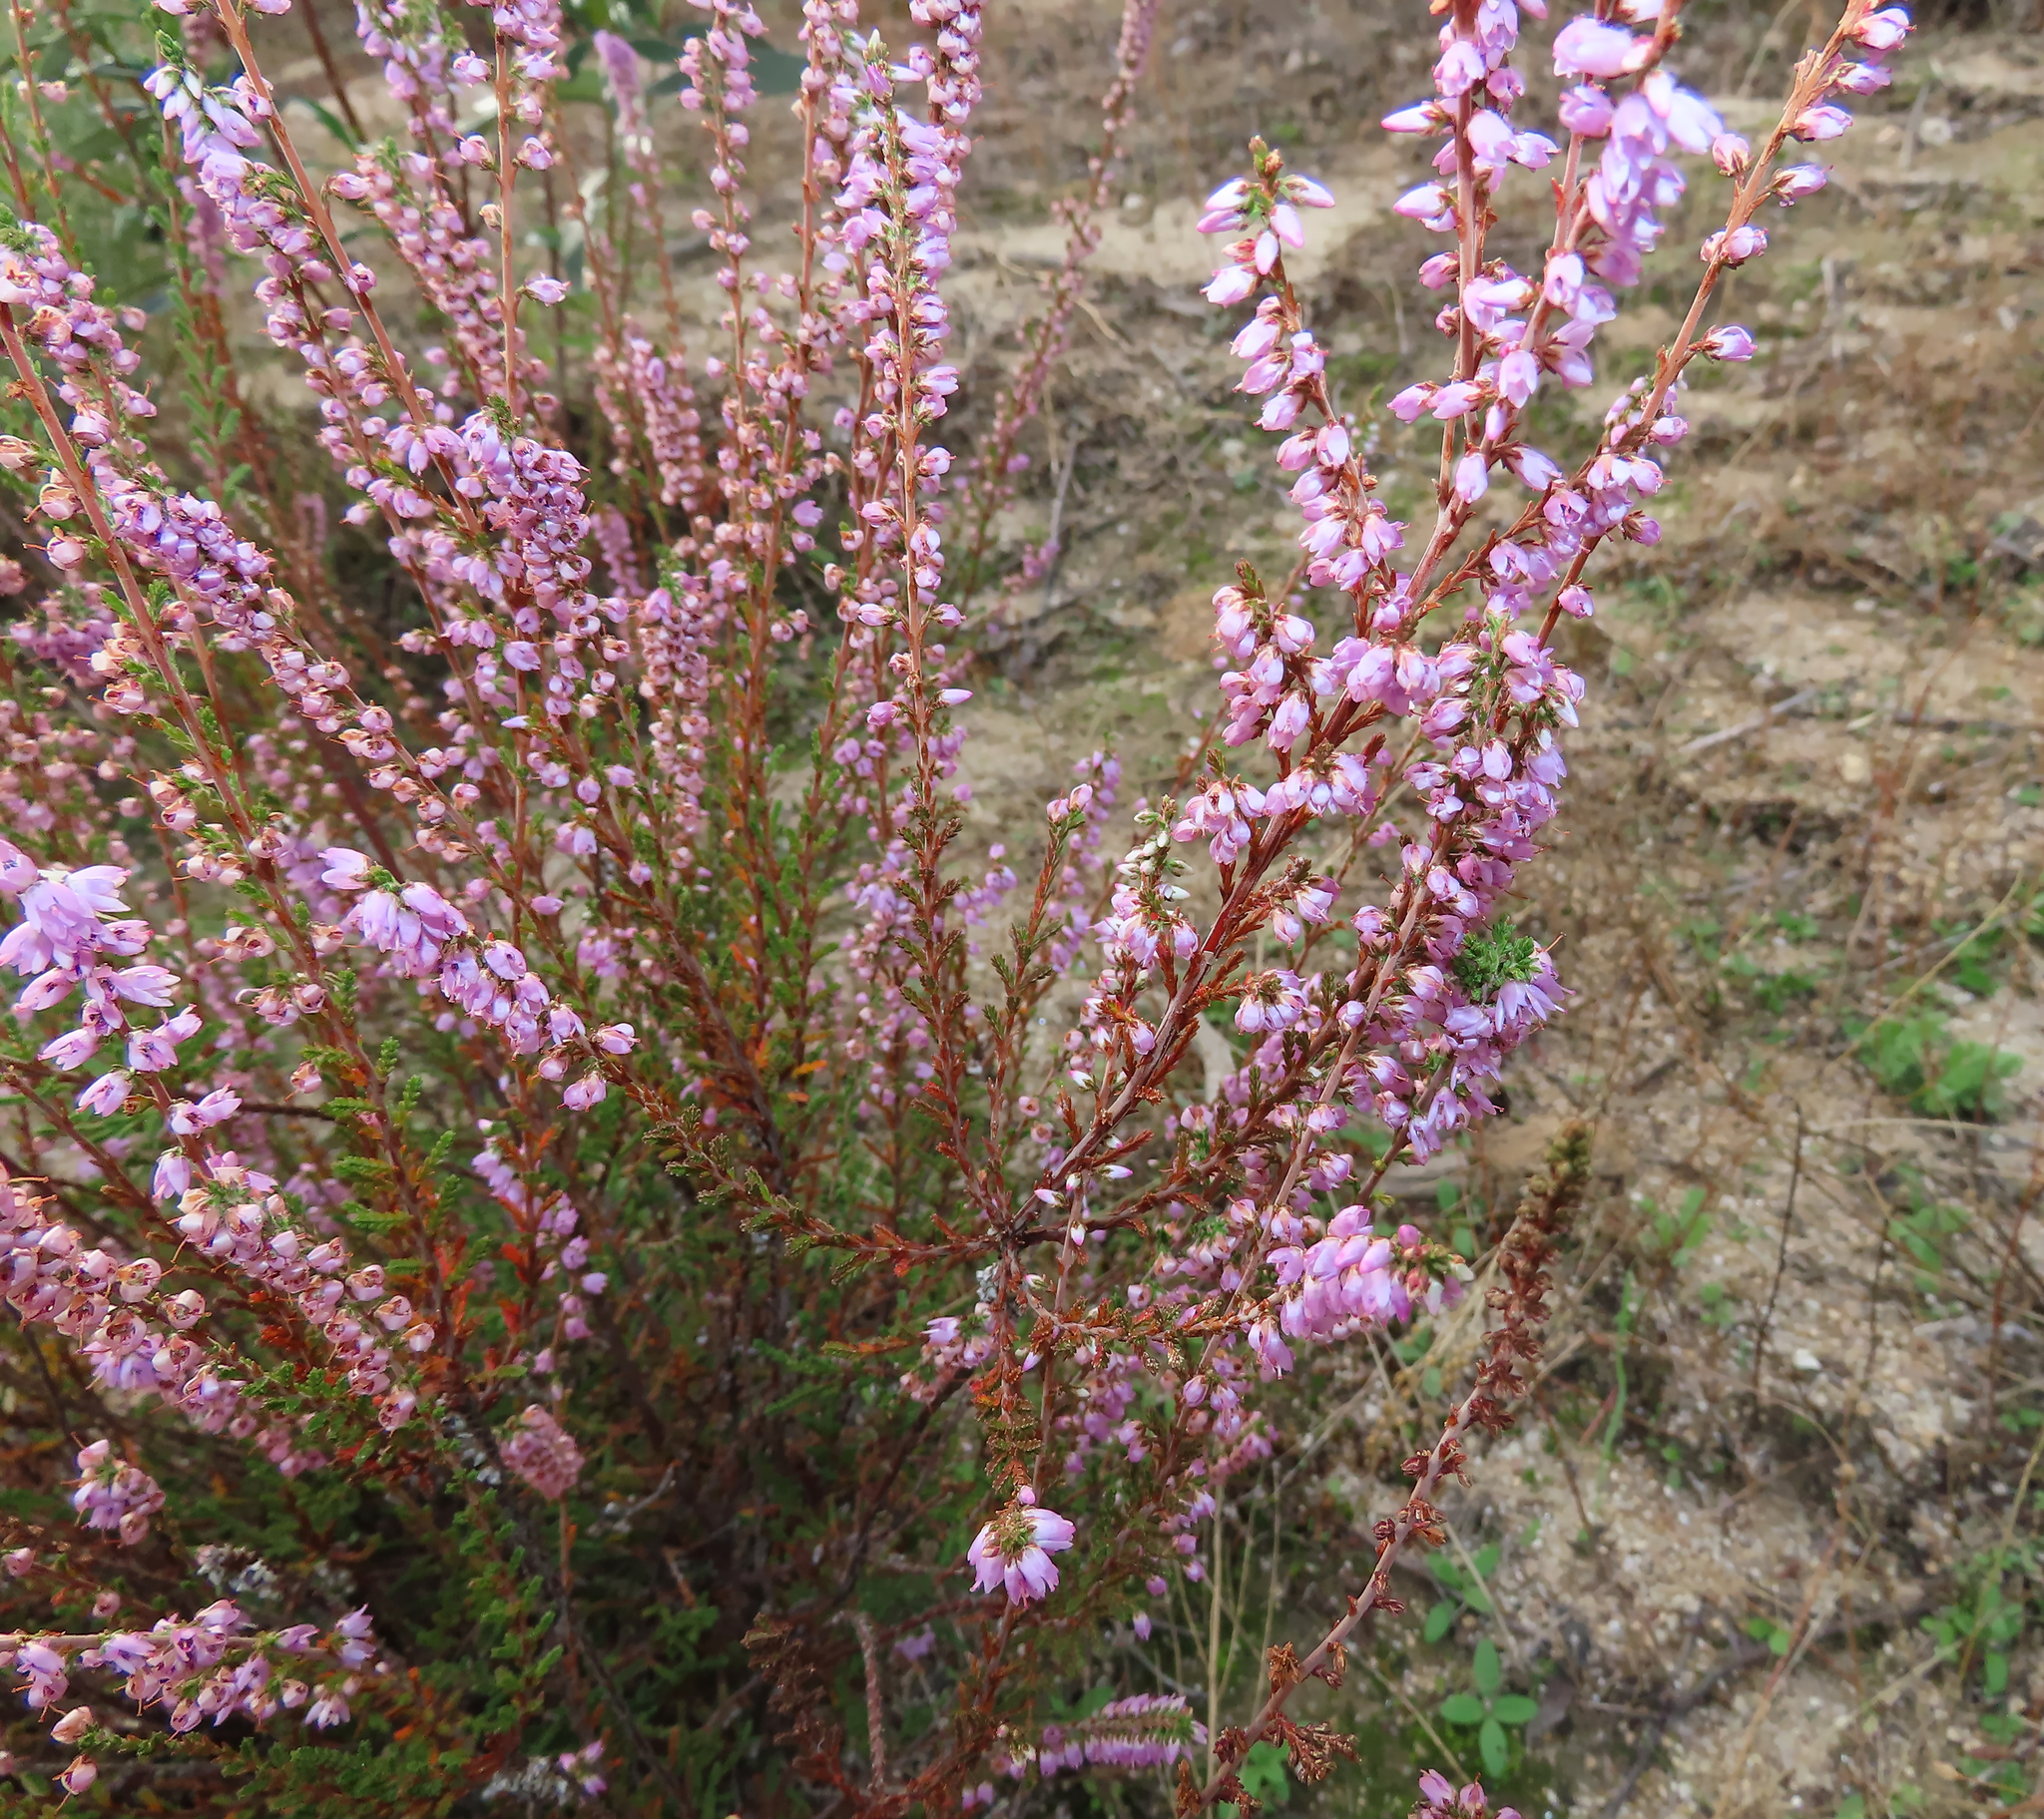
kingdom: Plantae
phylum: Tracheophyta
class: Magnoliopsida
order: Ericales
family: Ericaceae
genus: Calluna
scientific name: Calluna vulgaris
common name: Heather
